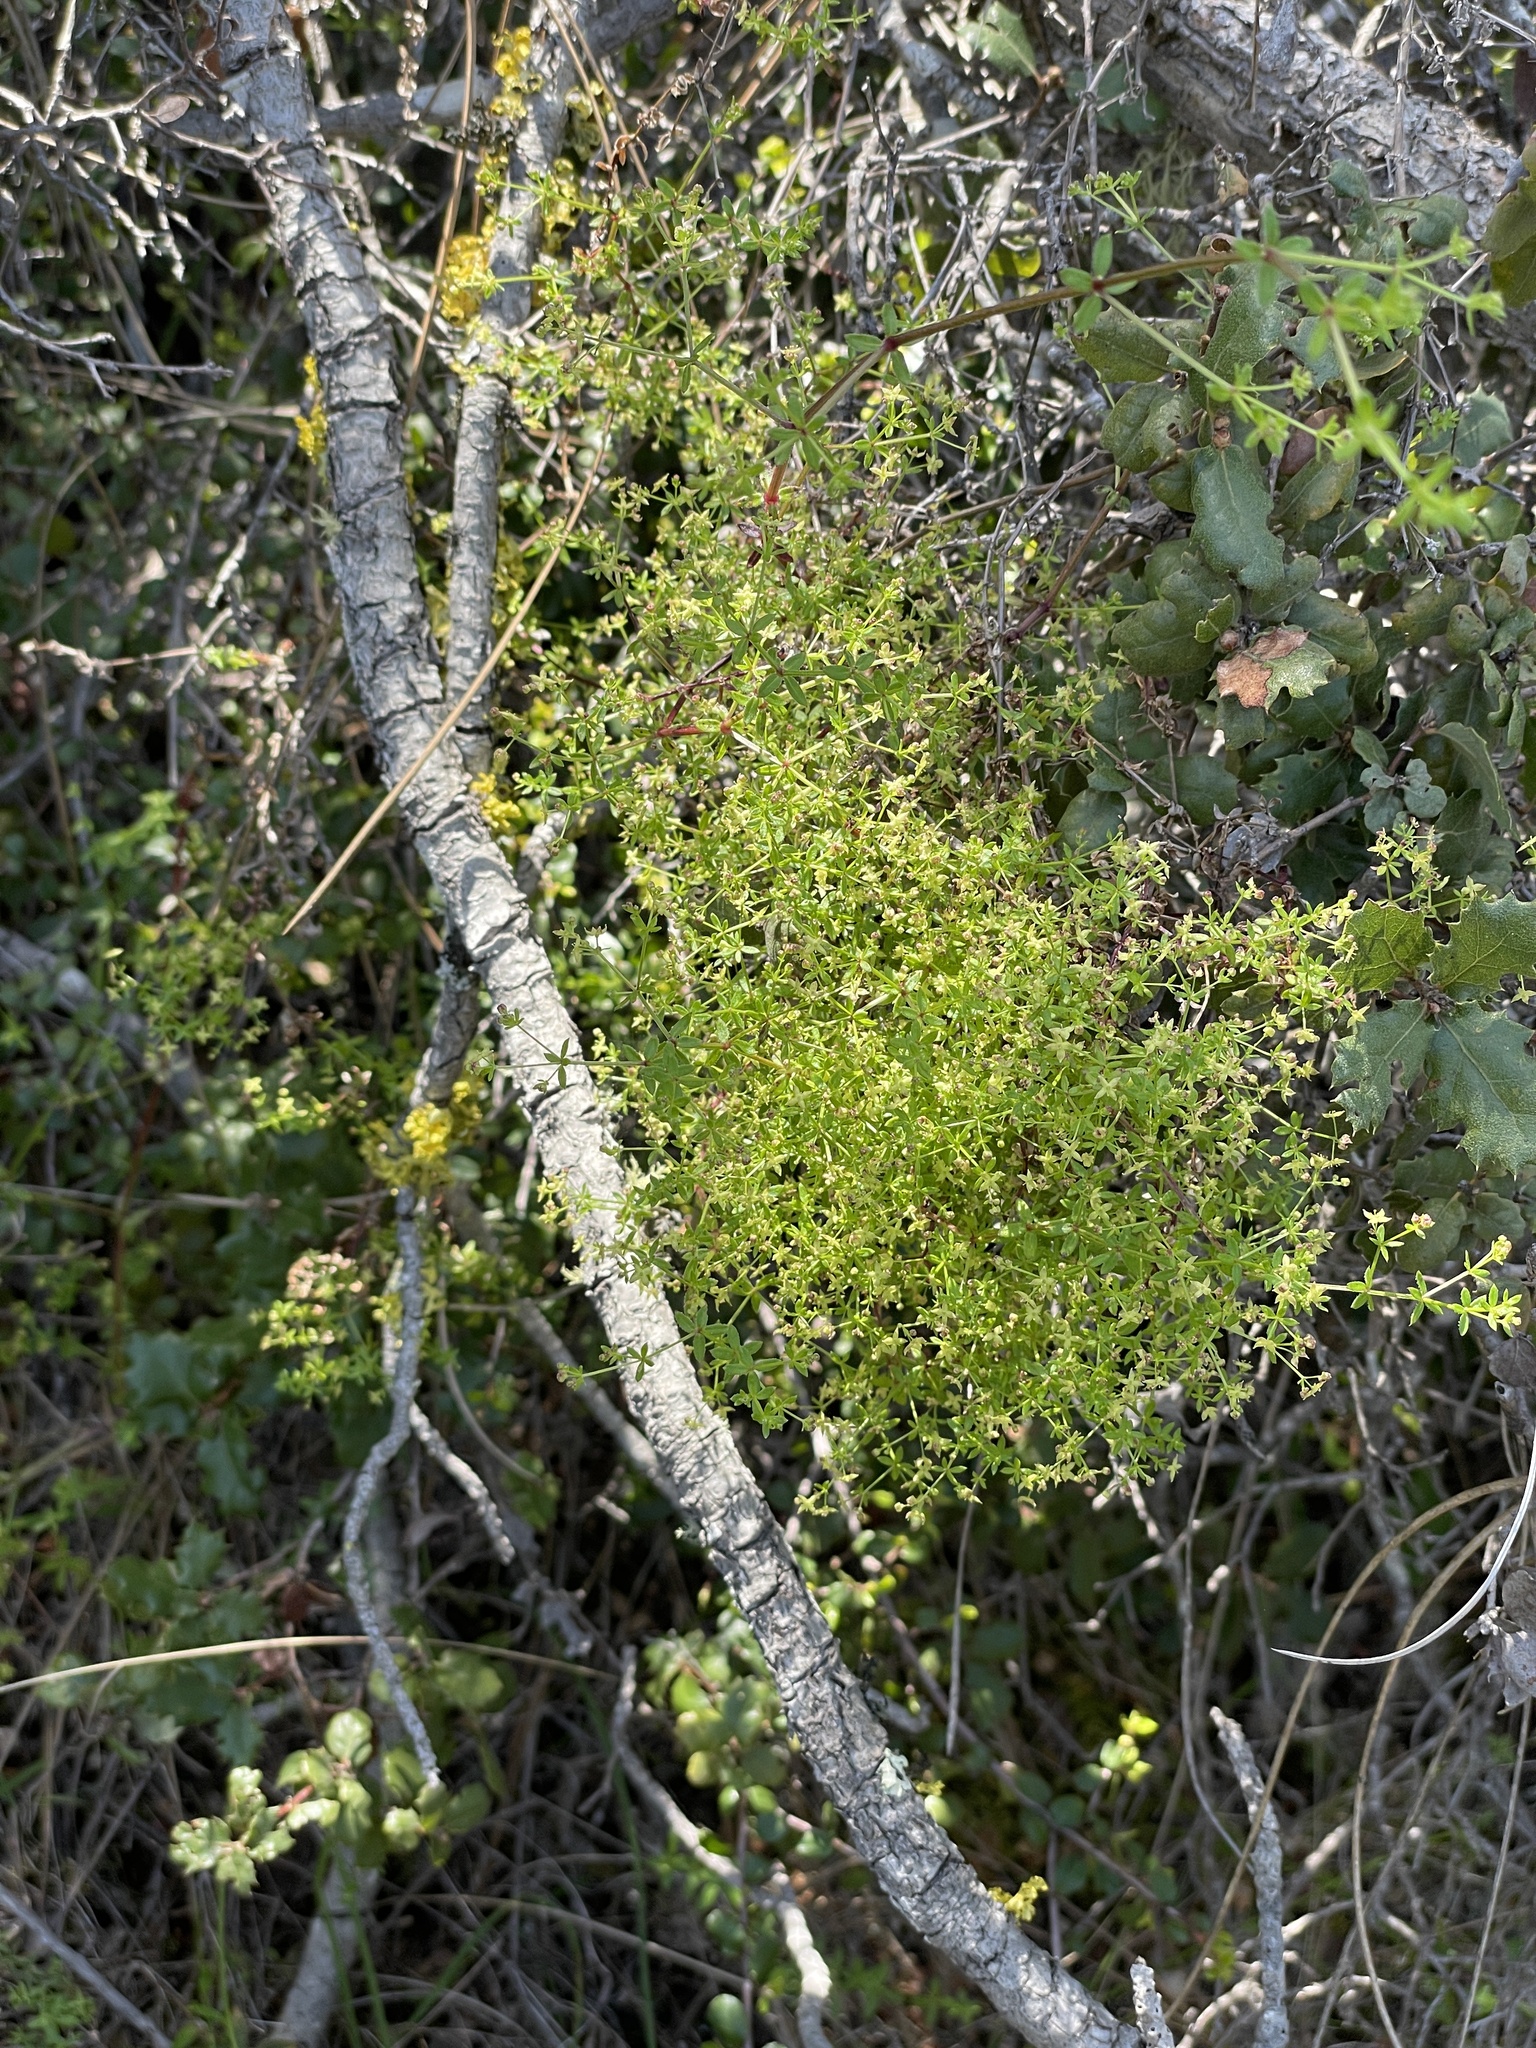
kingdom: Plantae
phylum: Tracheophyta
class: Magnoliopsida
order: Gentianales
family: Rubiaceae
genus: Galium
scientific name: Galium porrigens
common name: Climbing bedstraw
